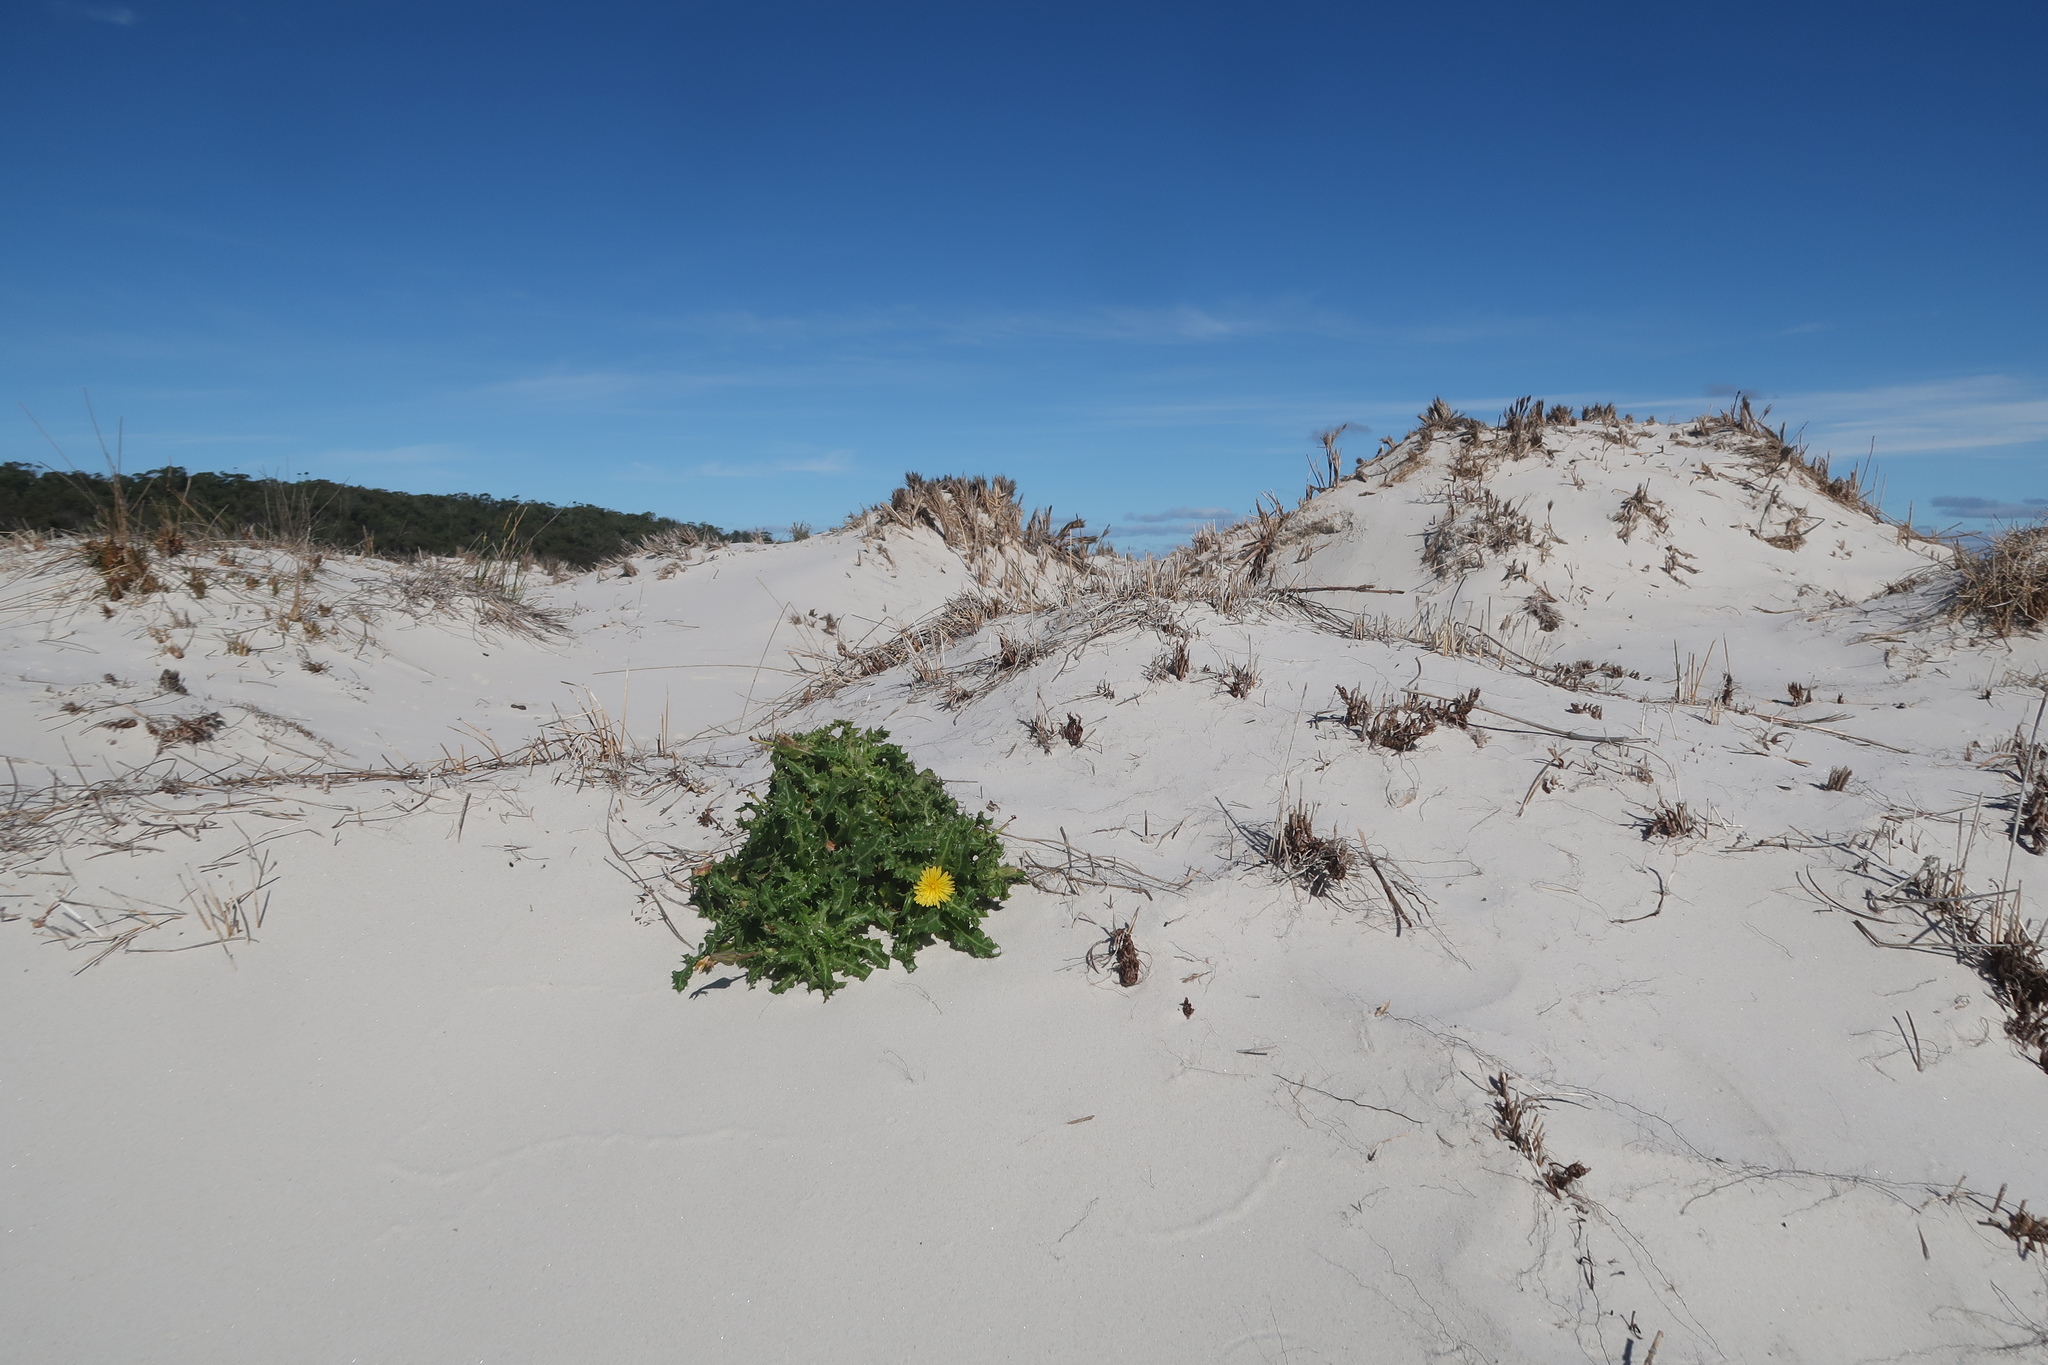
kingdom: Plantae
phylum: Tracheophyta
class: Magnoliopsida
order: Asterales
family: Asteraceae
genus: Sonchus
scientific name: Sonchus megalocarpus
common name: Dune thistle
